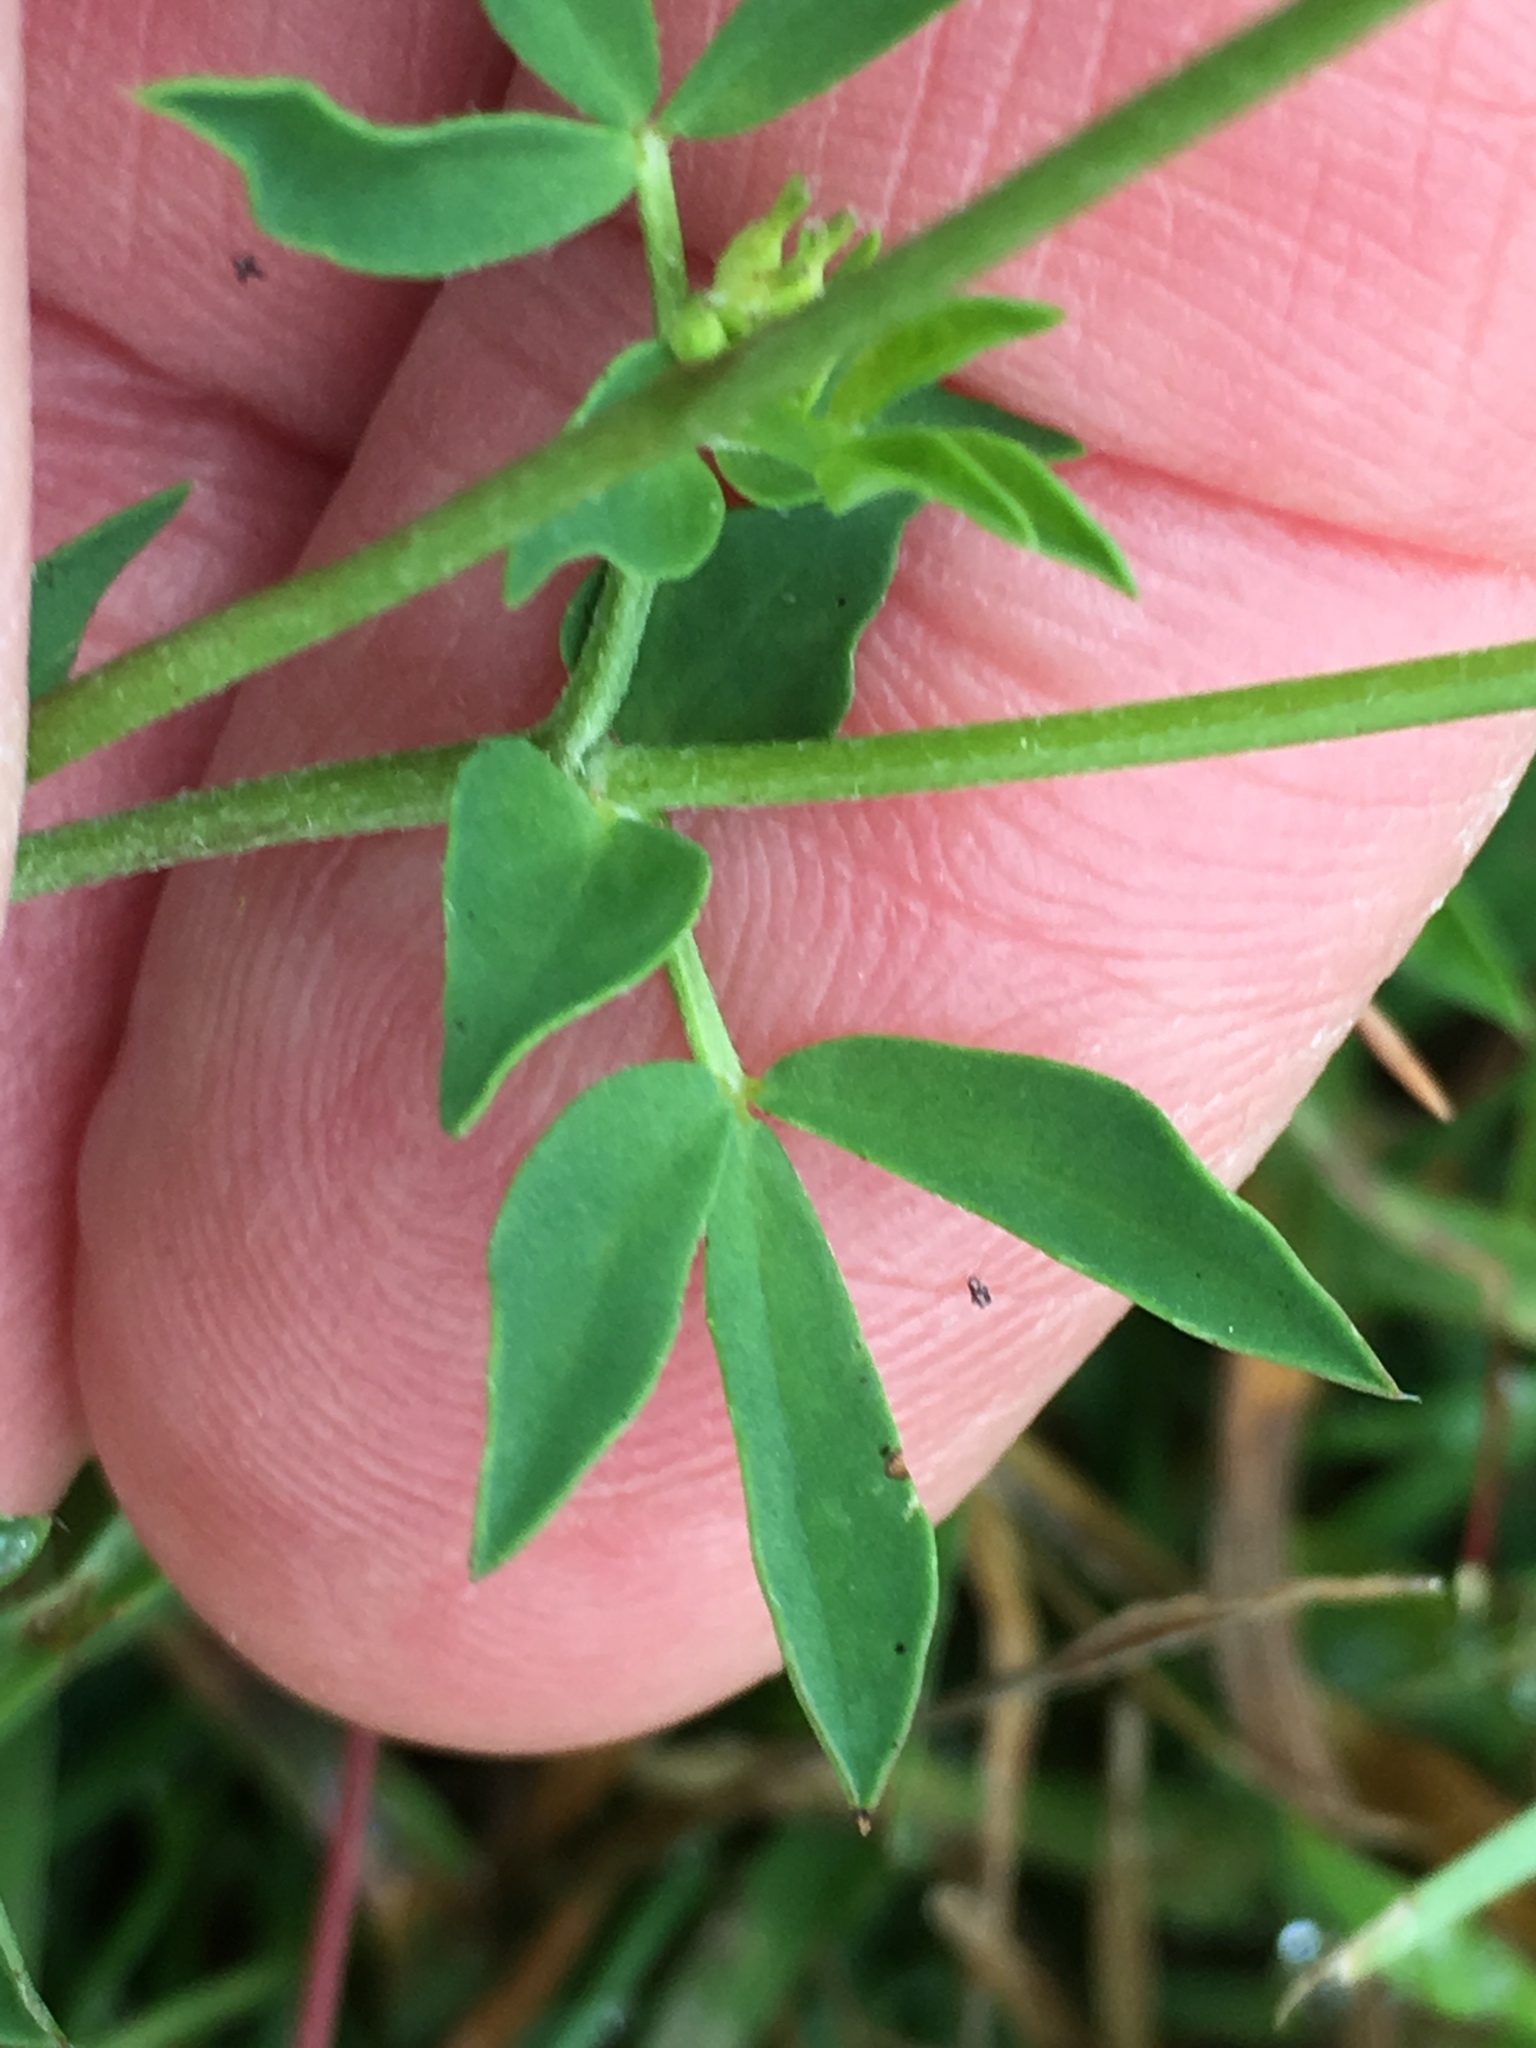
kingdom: Plantae
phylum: Tracheophyta
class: Magnoliopsida
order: Fabales
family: Fabaceae
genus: Lotus
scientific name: Lotus corniculatus
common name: Common bird's-foot-trefoil
